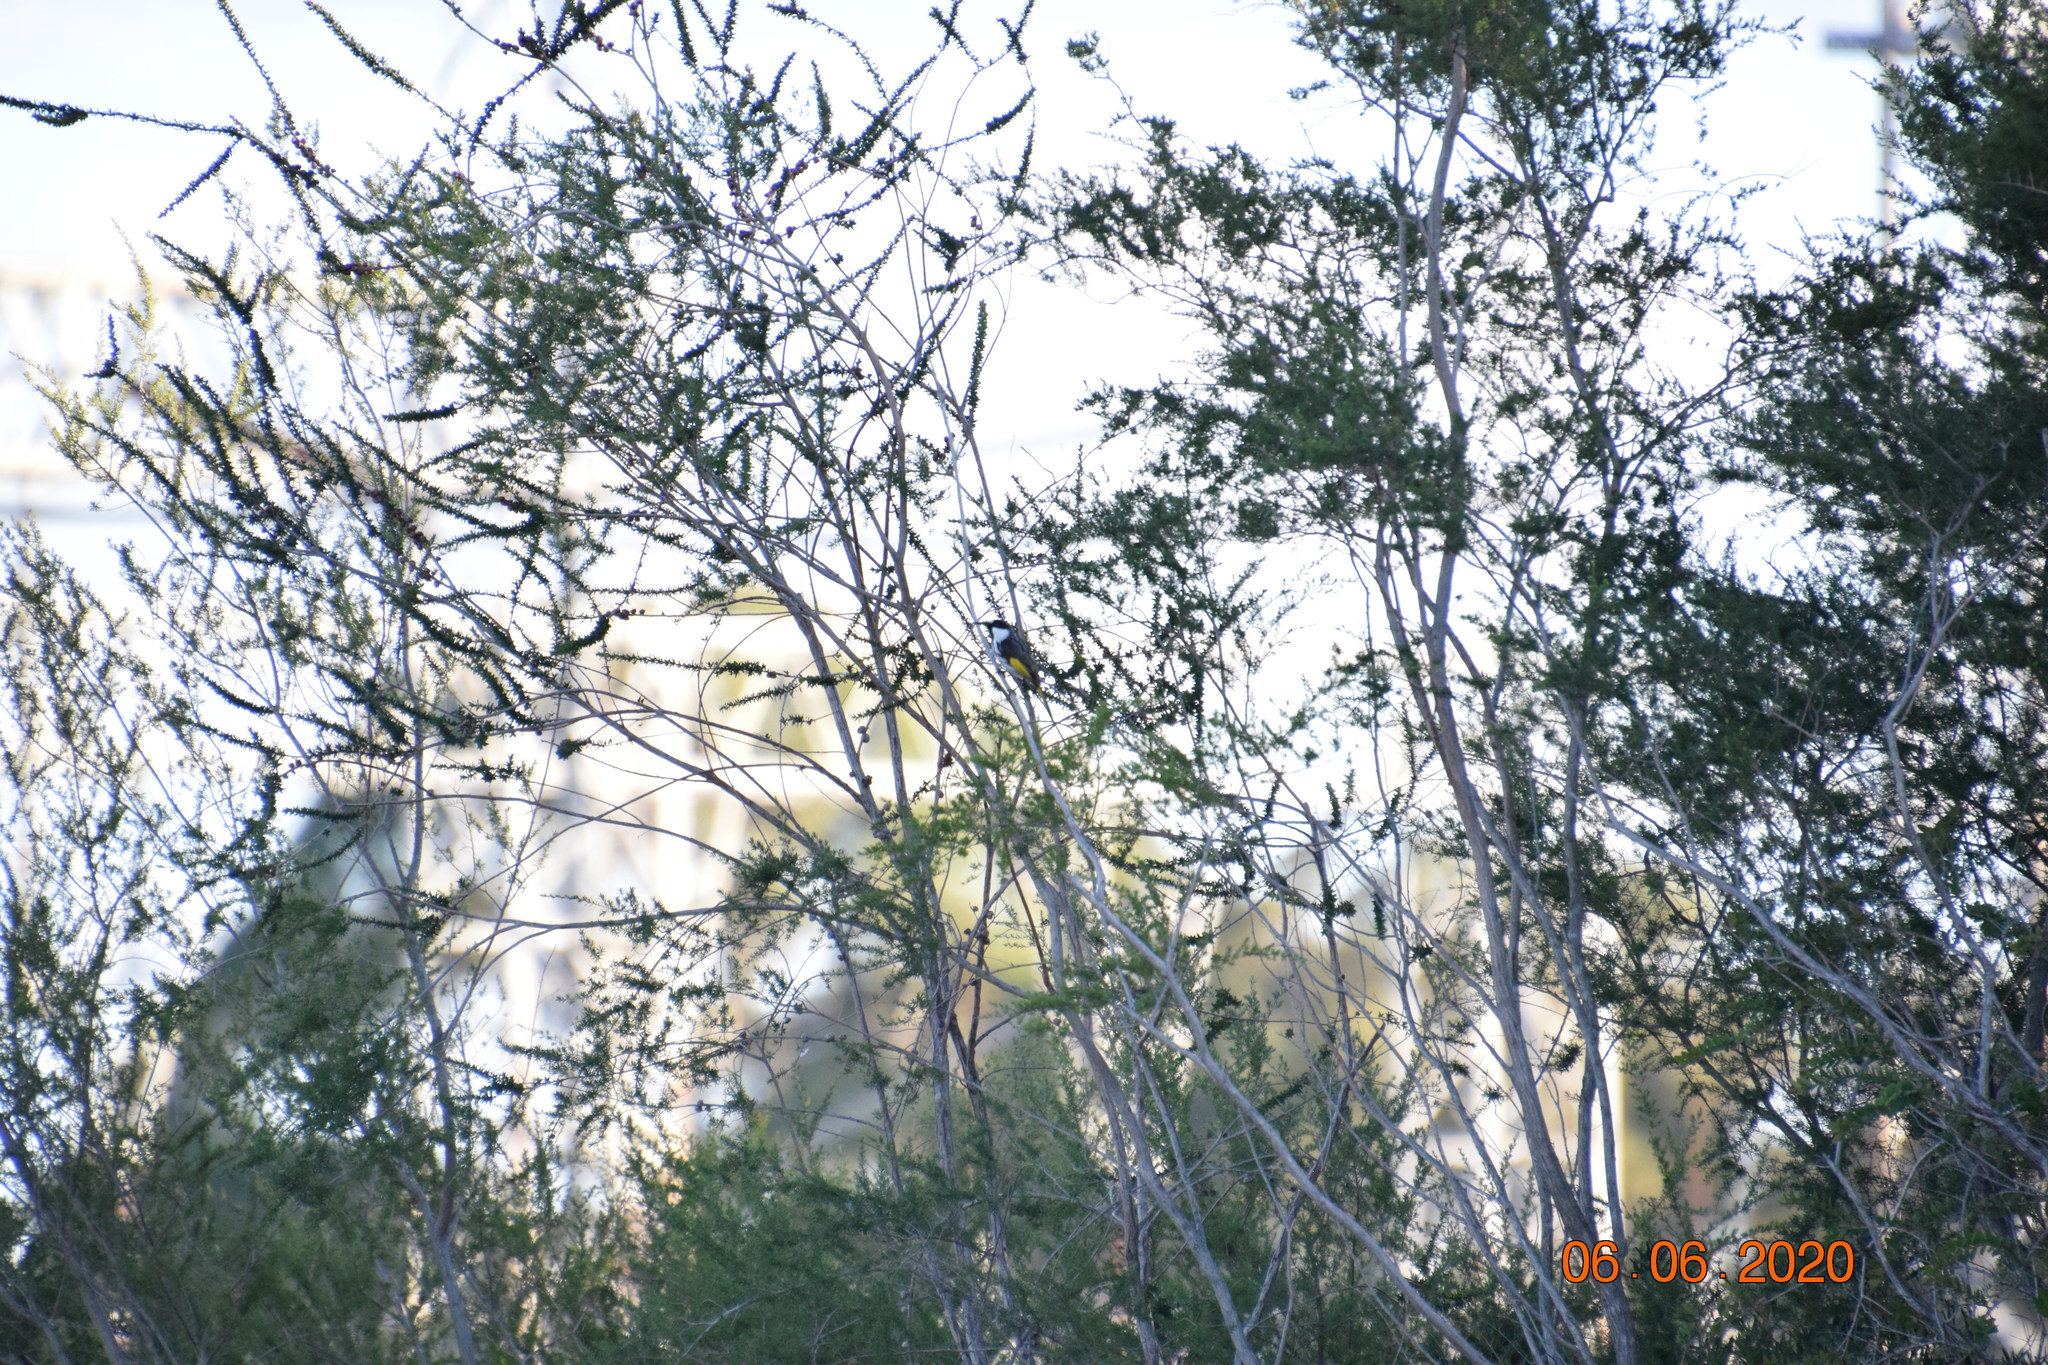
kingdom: Animalia
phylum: Chordata
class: Aves
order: Passeriformes
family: Meliphagidae
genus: Phylidonyris
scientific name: Phylidonyris niger
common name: White-cheeked honeyeater
